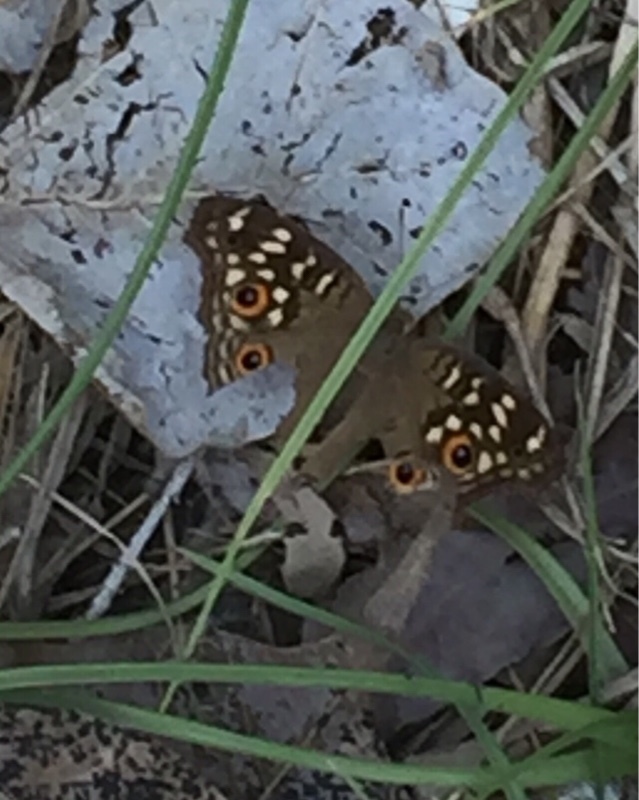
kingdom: Animalia
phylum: Arthropoda
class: Insecta
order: Lepidoptera
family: Nymphalidae
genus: Junonia
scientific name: Junonia lemonias
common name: Lemon pansy
